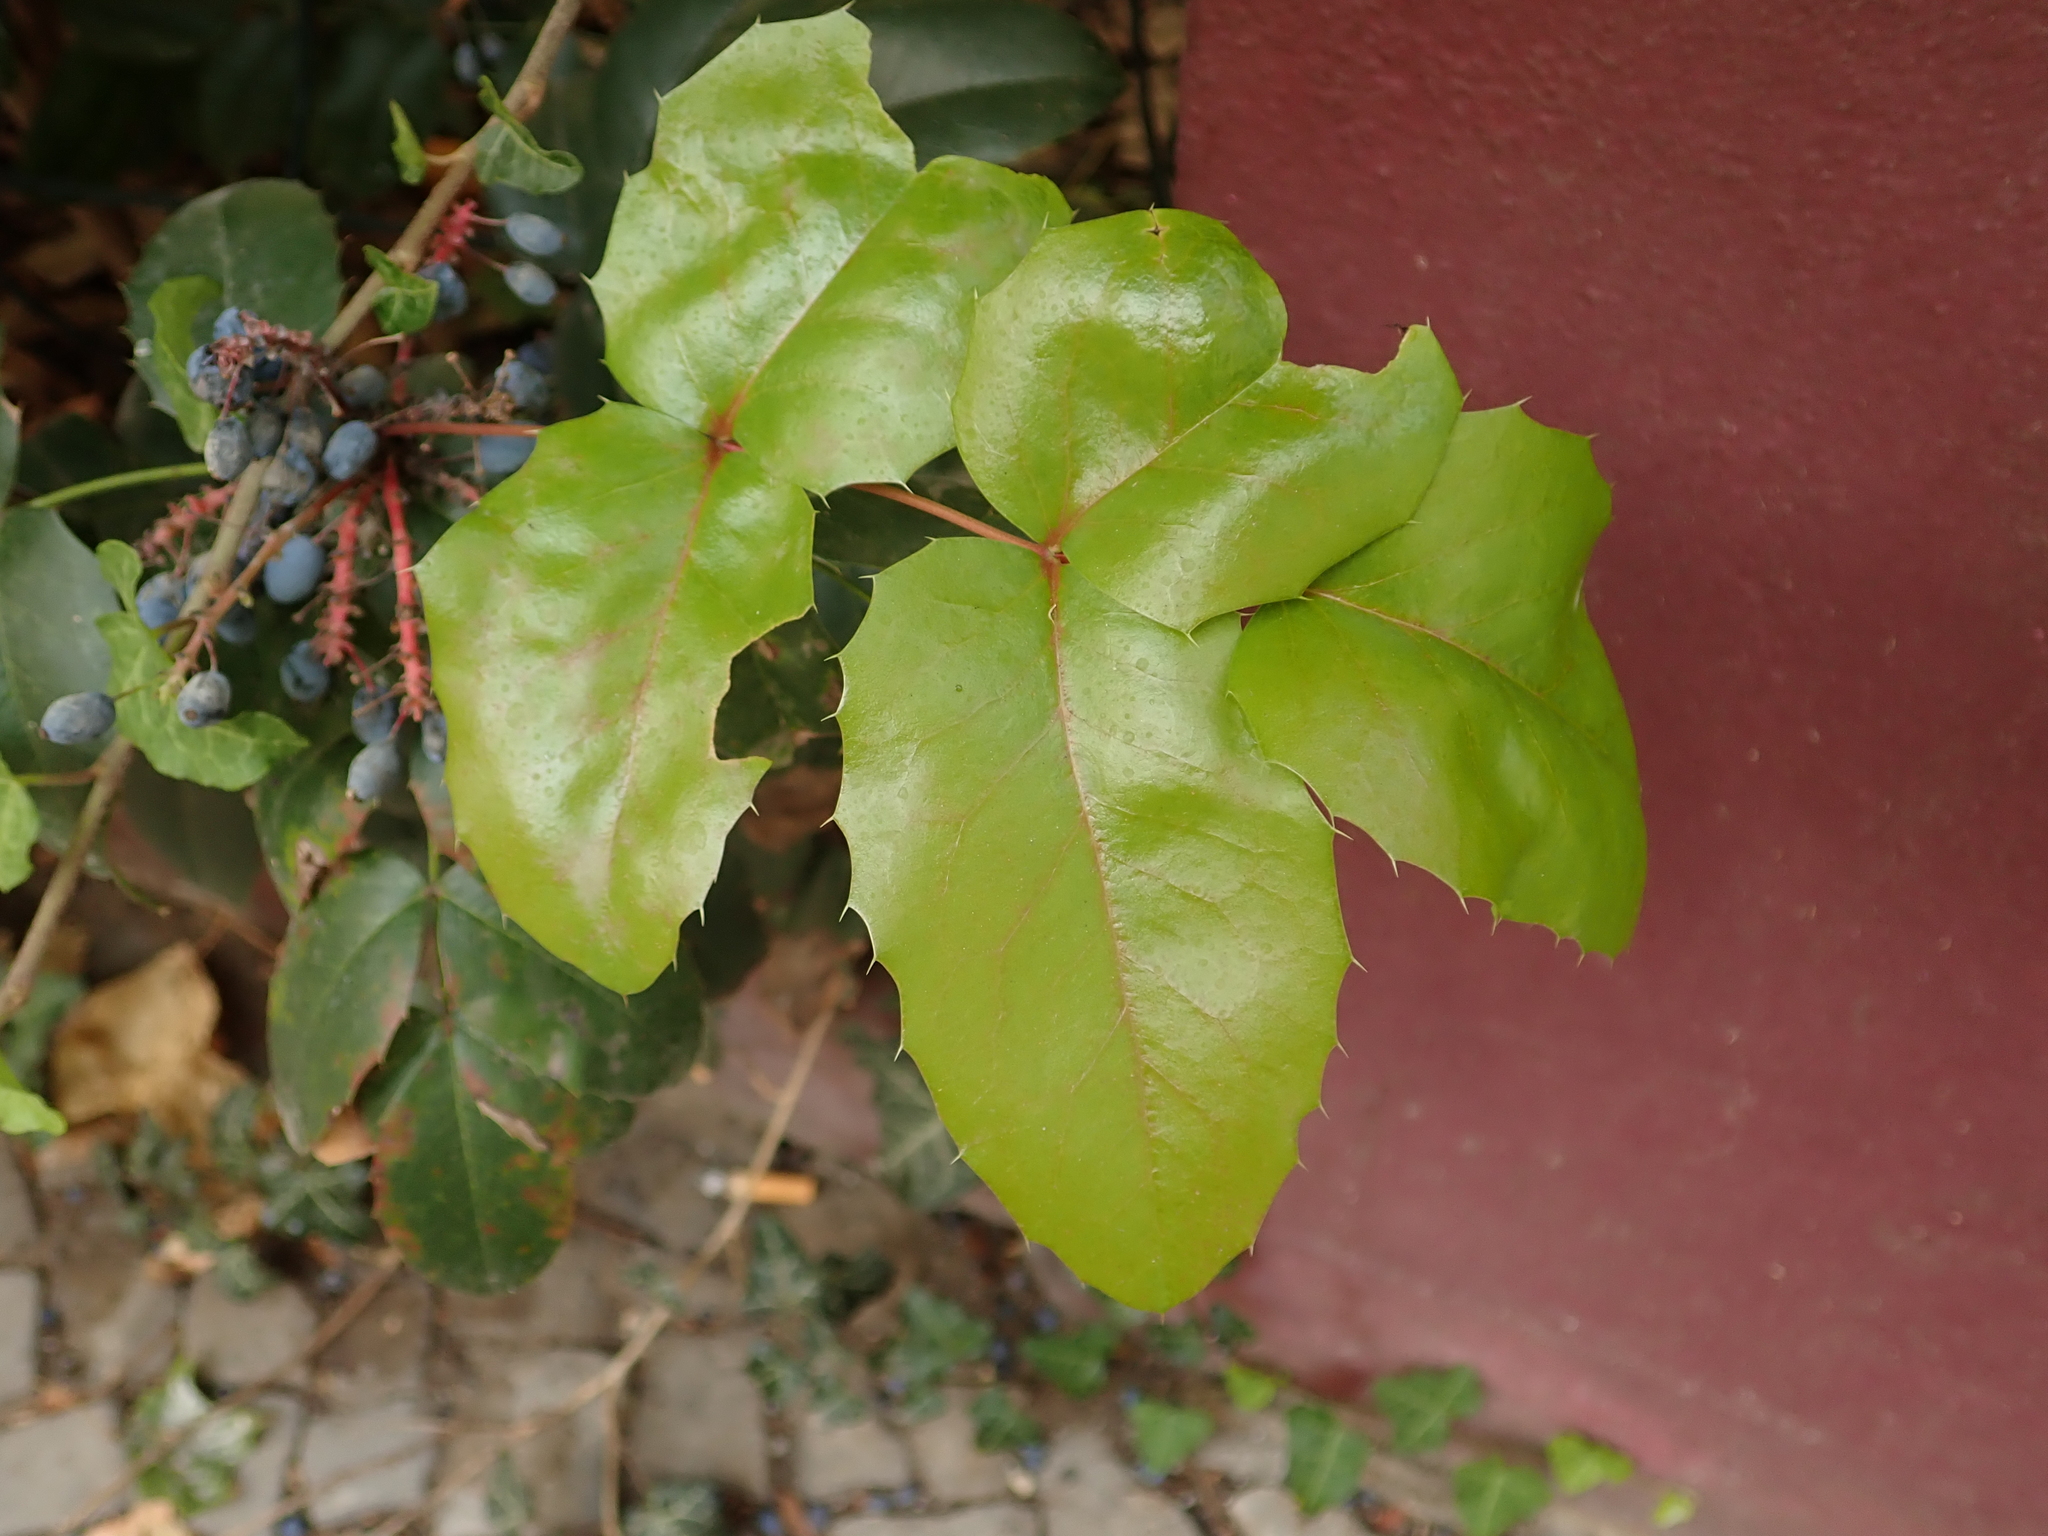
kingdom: Plantae
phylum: Tracheophyta
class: Magnoliopsida
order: Ranunculales
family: Berberidaceae
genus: Mahonia
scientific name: Mahonia aquifolium
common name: Oregon-grape
